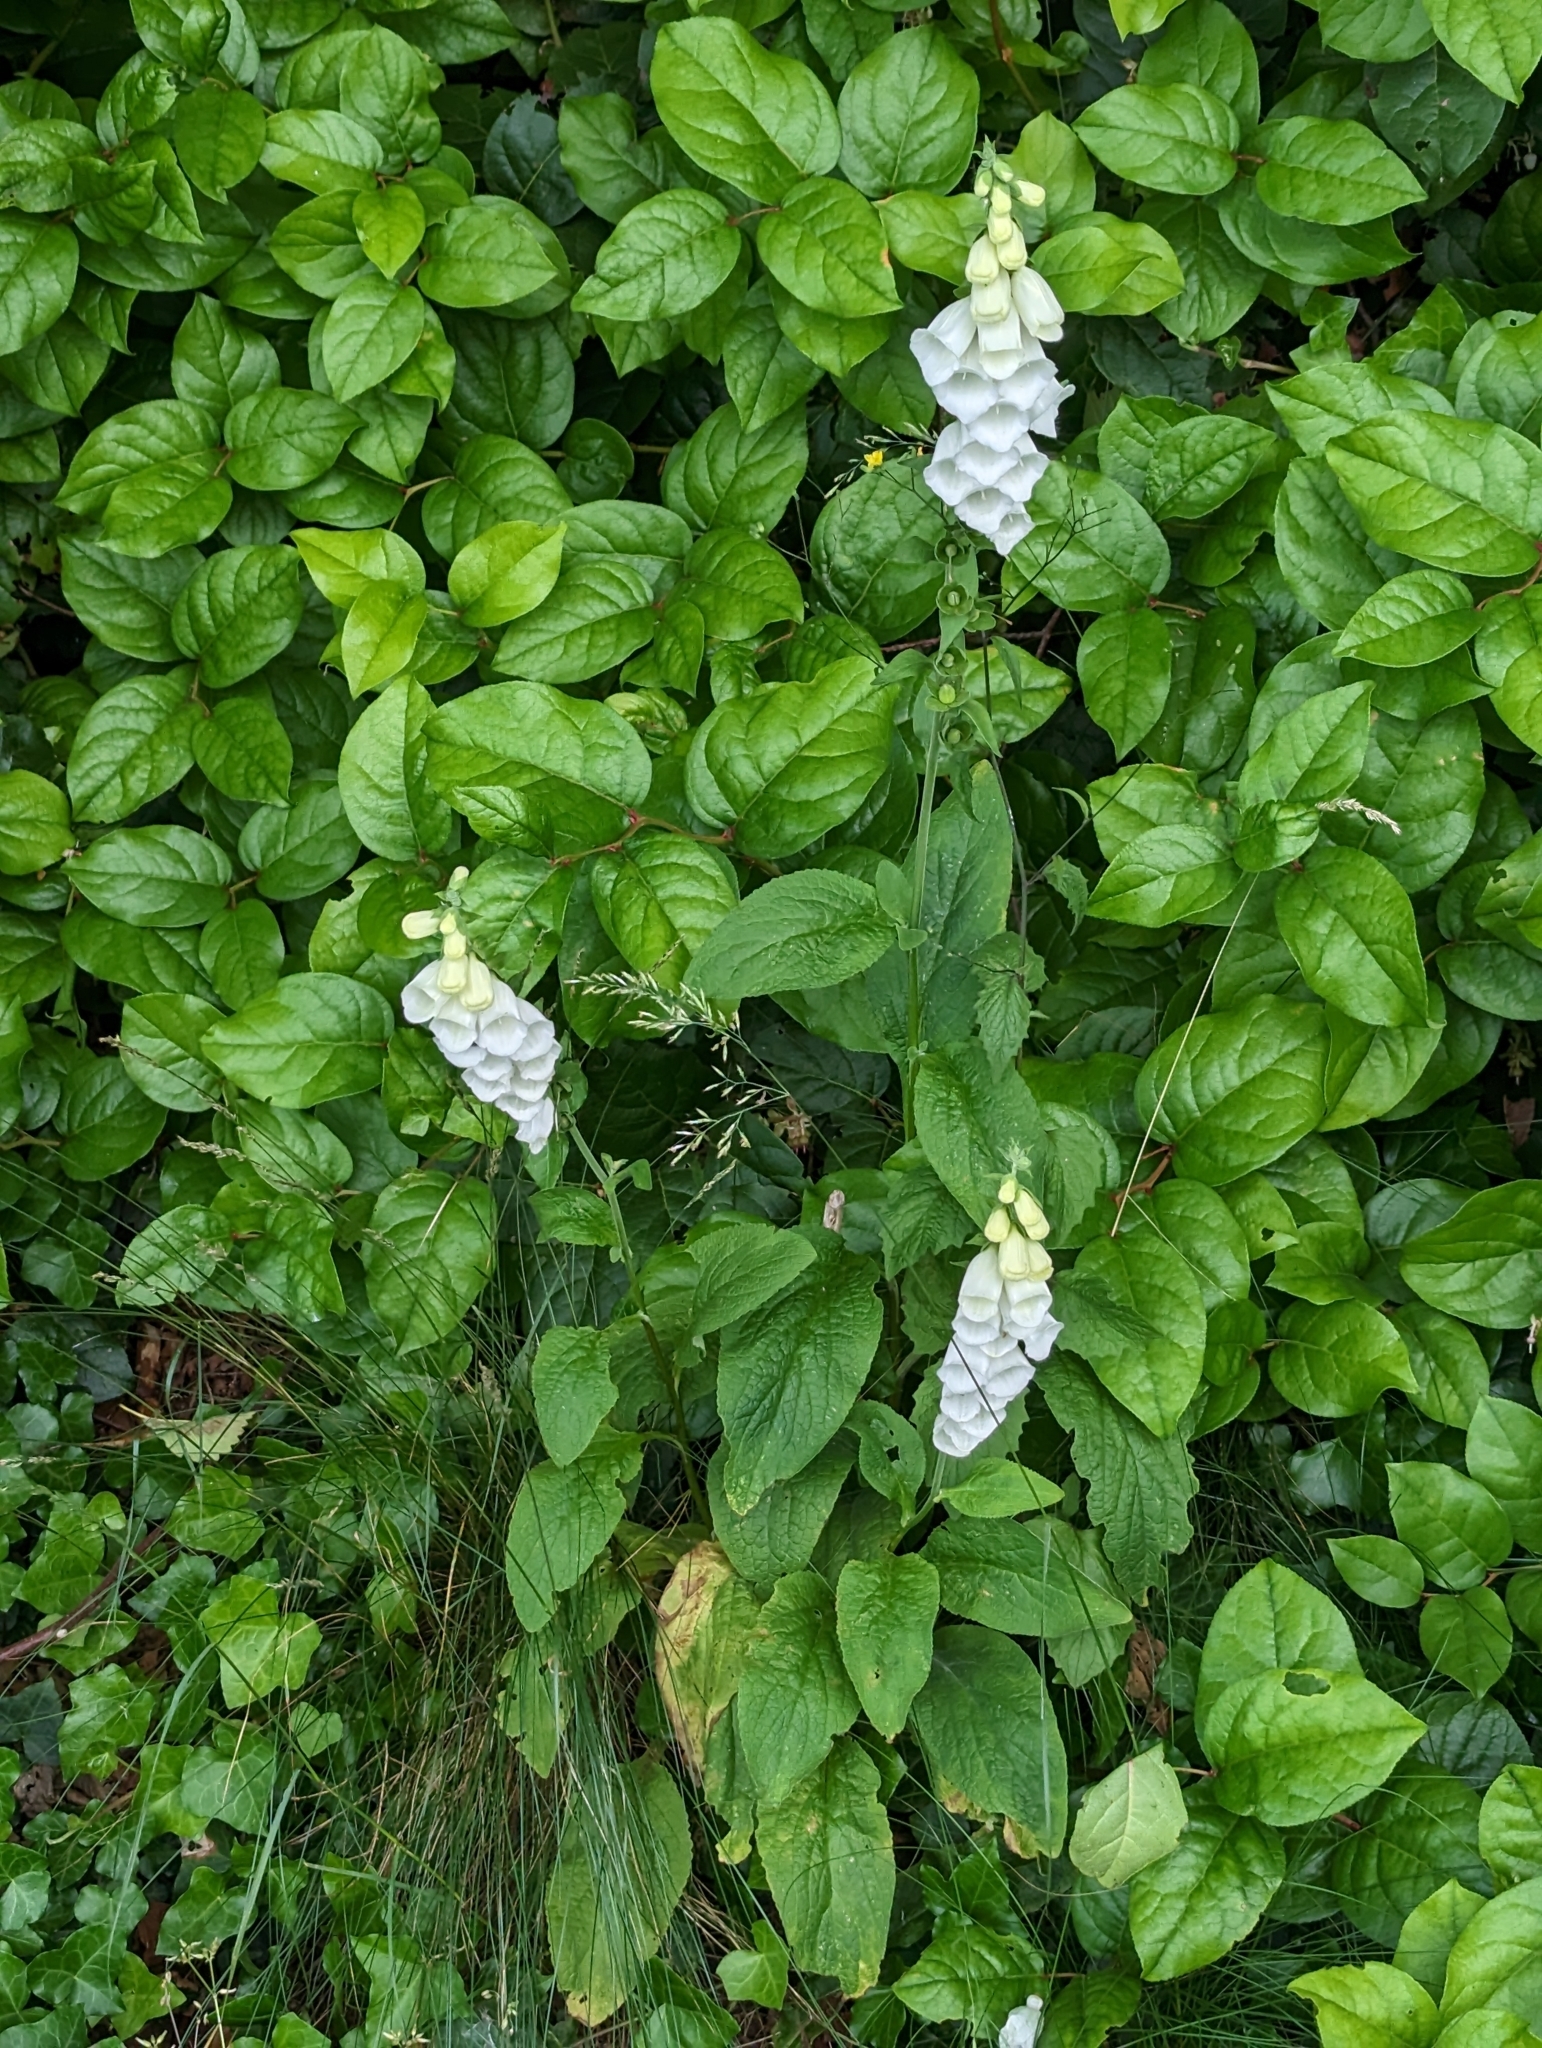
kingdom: Plantae
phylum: Tracheophyta
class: Magnoliopsida
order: Lamiales
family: Plantaginaceae
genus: Digitalis
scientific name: Digitalis purpurea
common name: Foxglove
